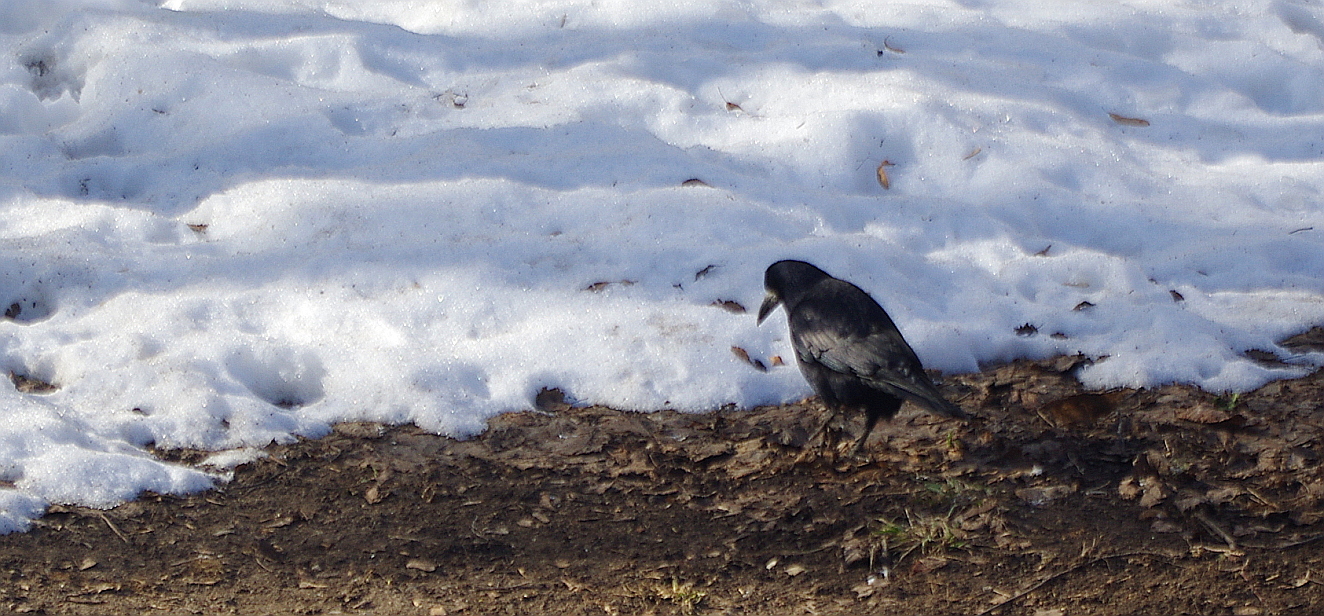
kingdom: Animalia
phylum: Chordata
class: Aves
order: Passeriformes
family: Corvidae
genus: Corvus
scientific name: Corvus frugilegus
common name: Rook
